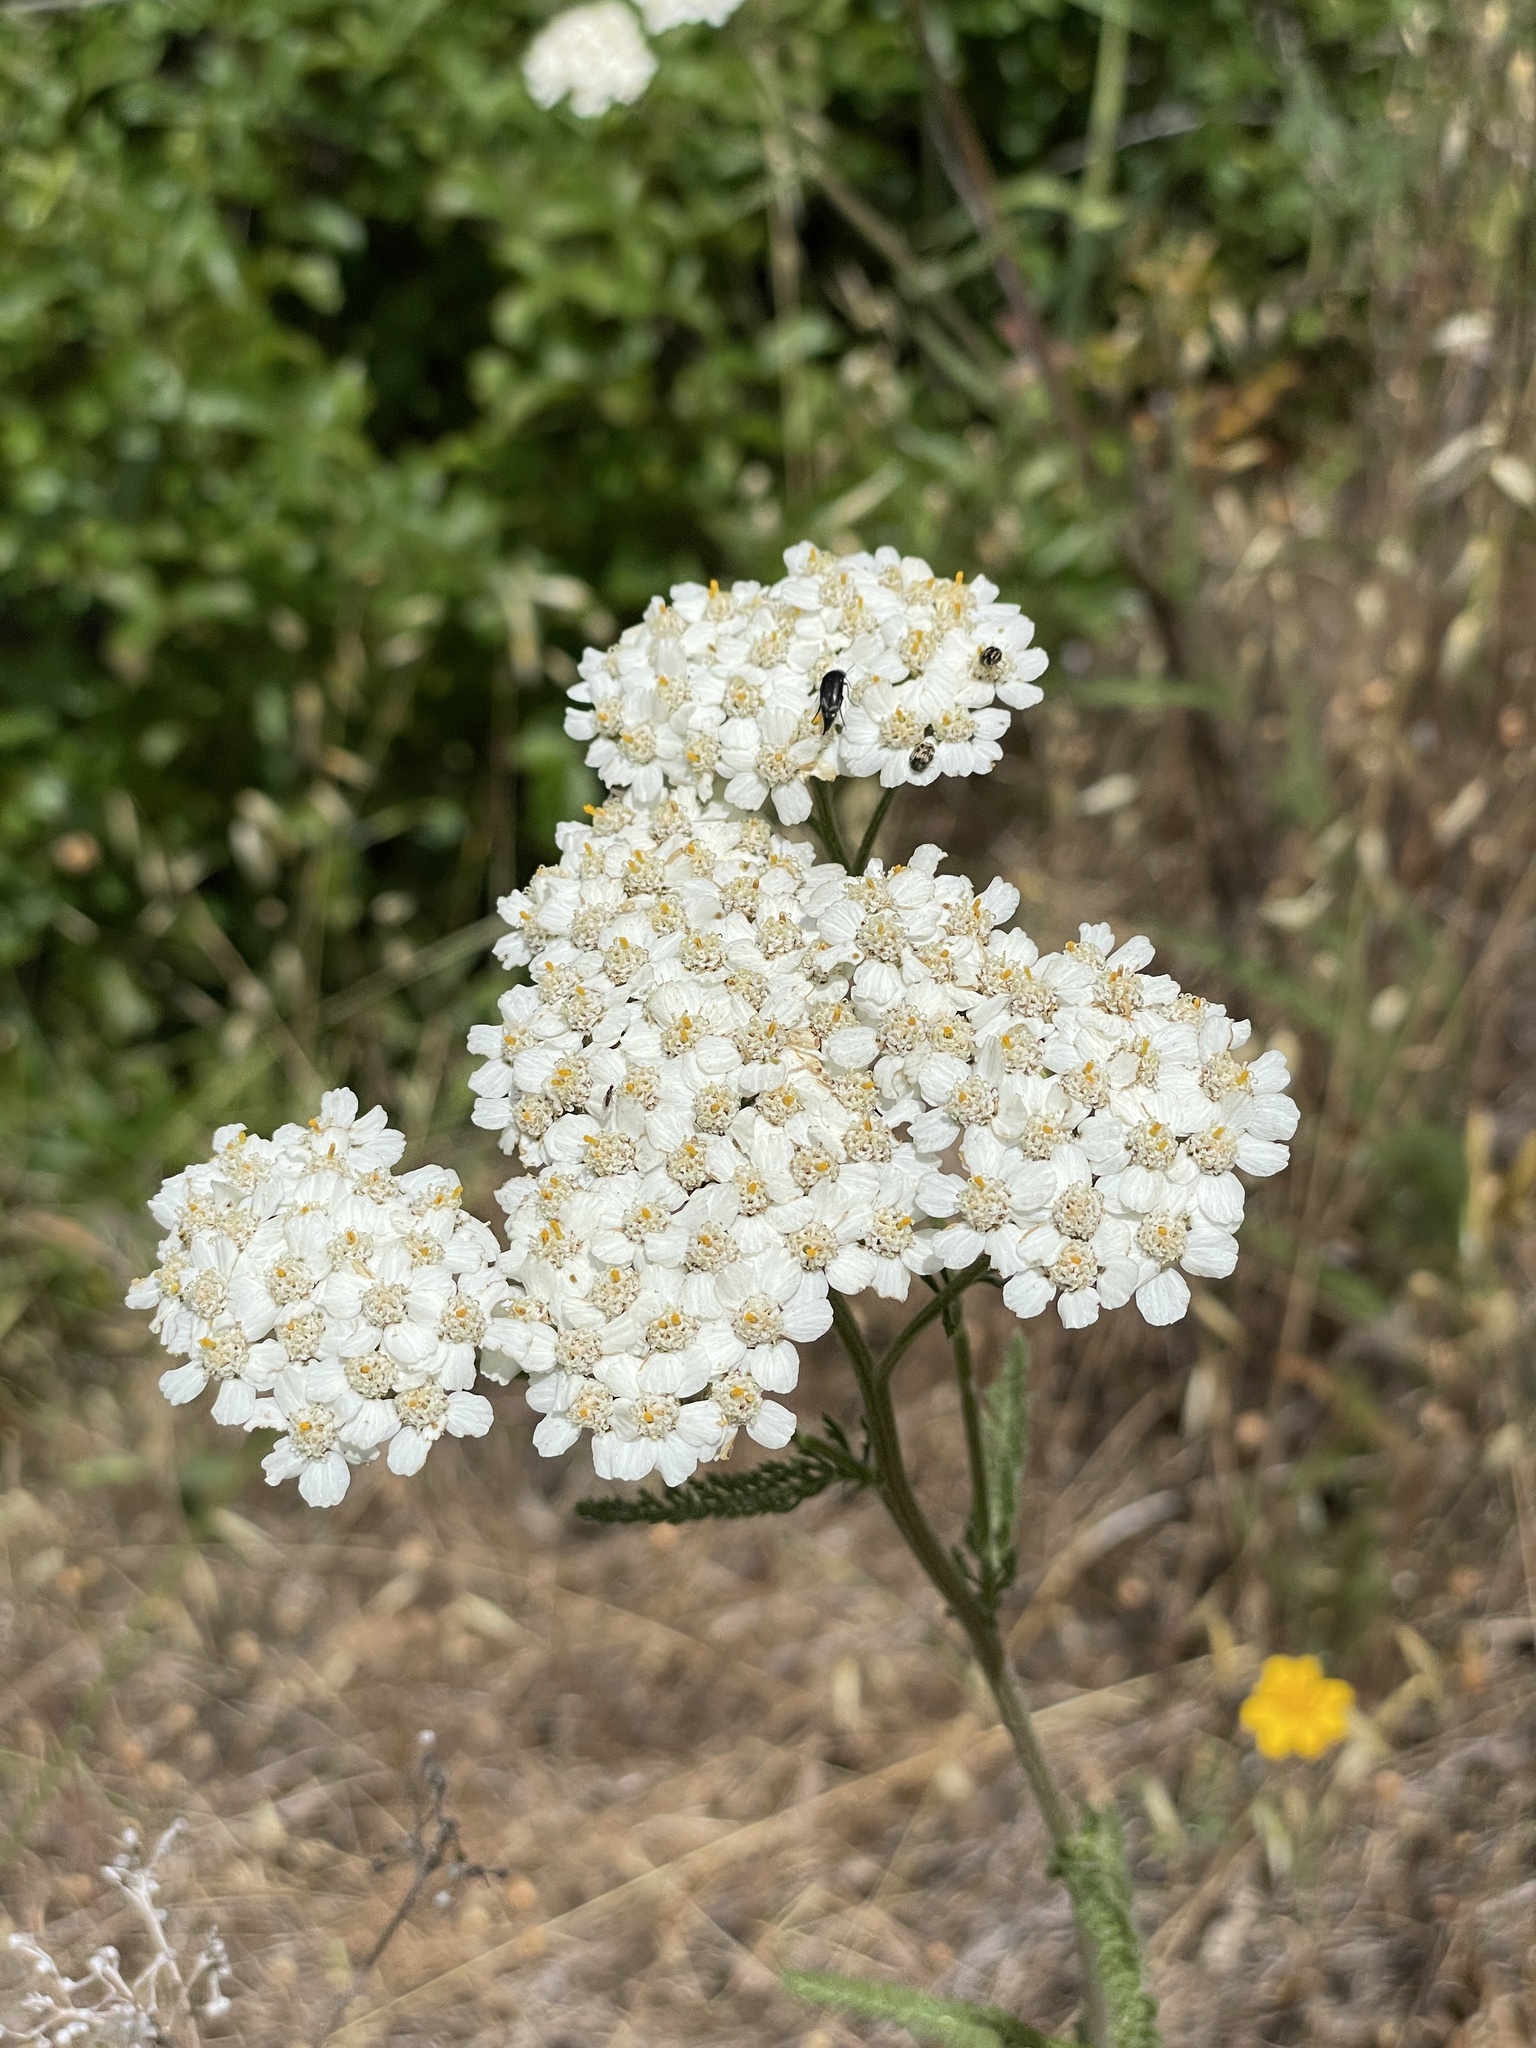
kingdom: Plantae
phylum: Tracheophyta
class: Magnoliopsida
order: Asterales
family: Asteraceae
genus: Achillea
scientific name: Achillea millefolium
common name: Yarrow
